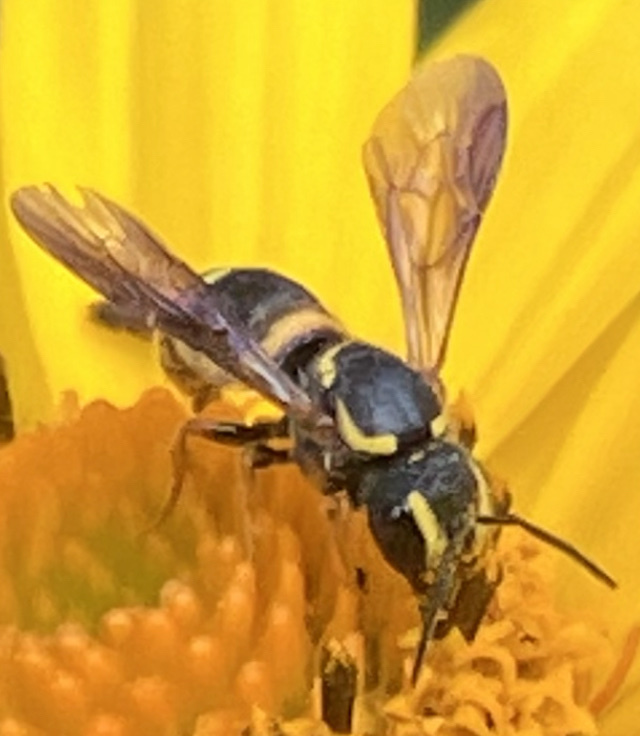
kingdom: Animalia
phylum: Arthropoda
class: Insecta
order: Hymenoptera
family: Megachilidae
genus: Stelis
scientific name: Stelis louisae
